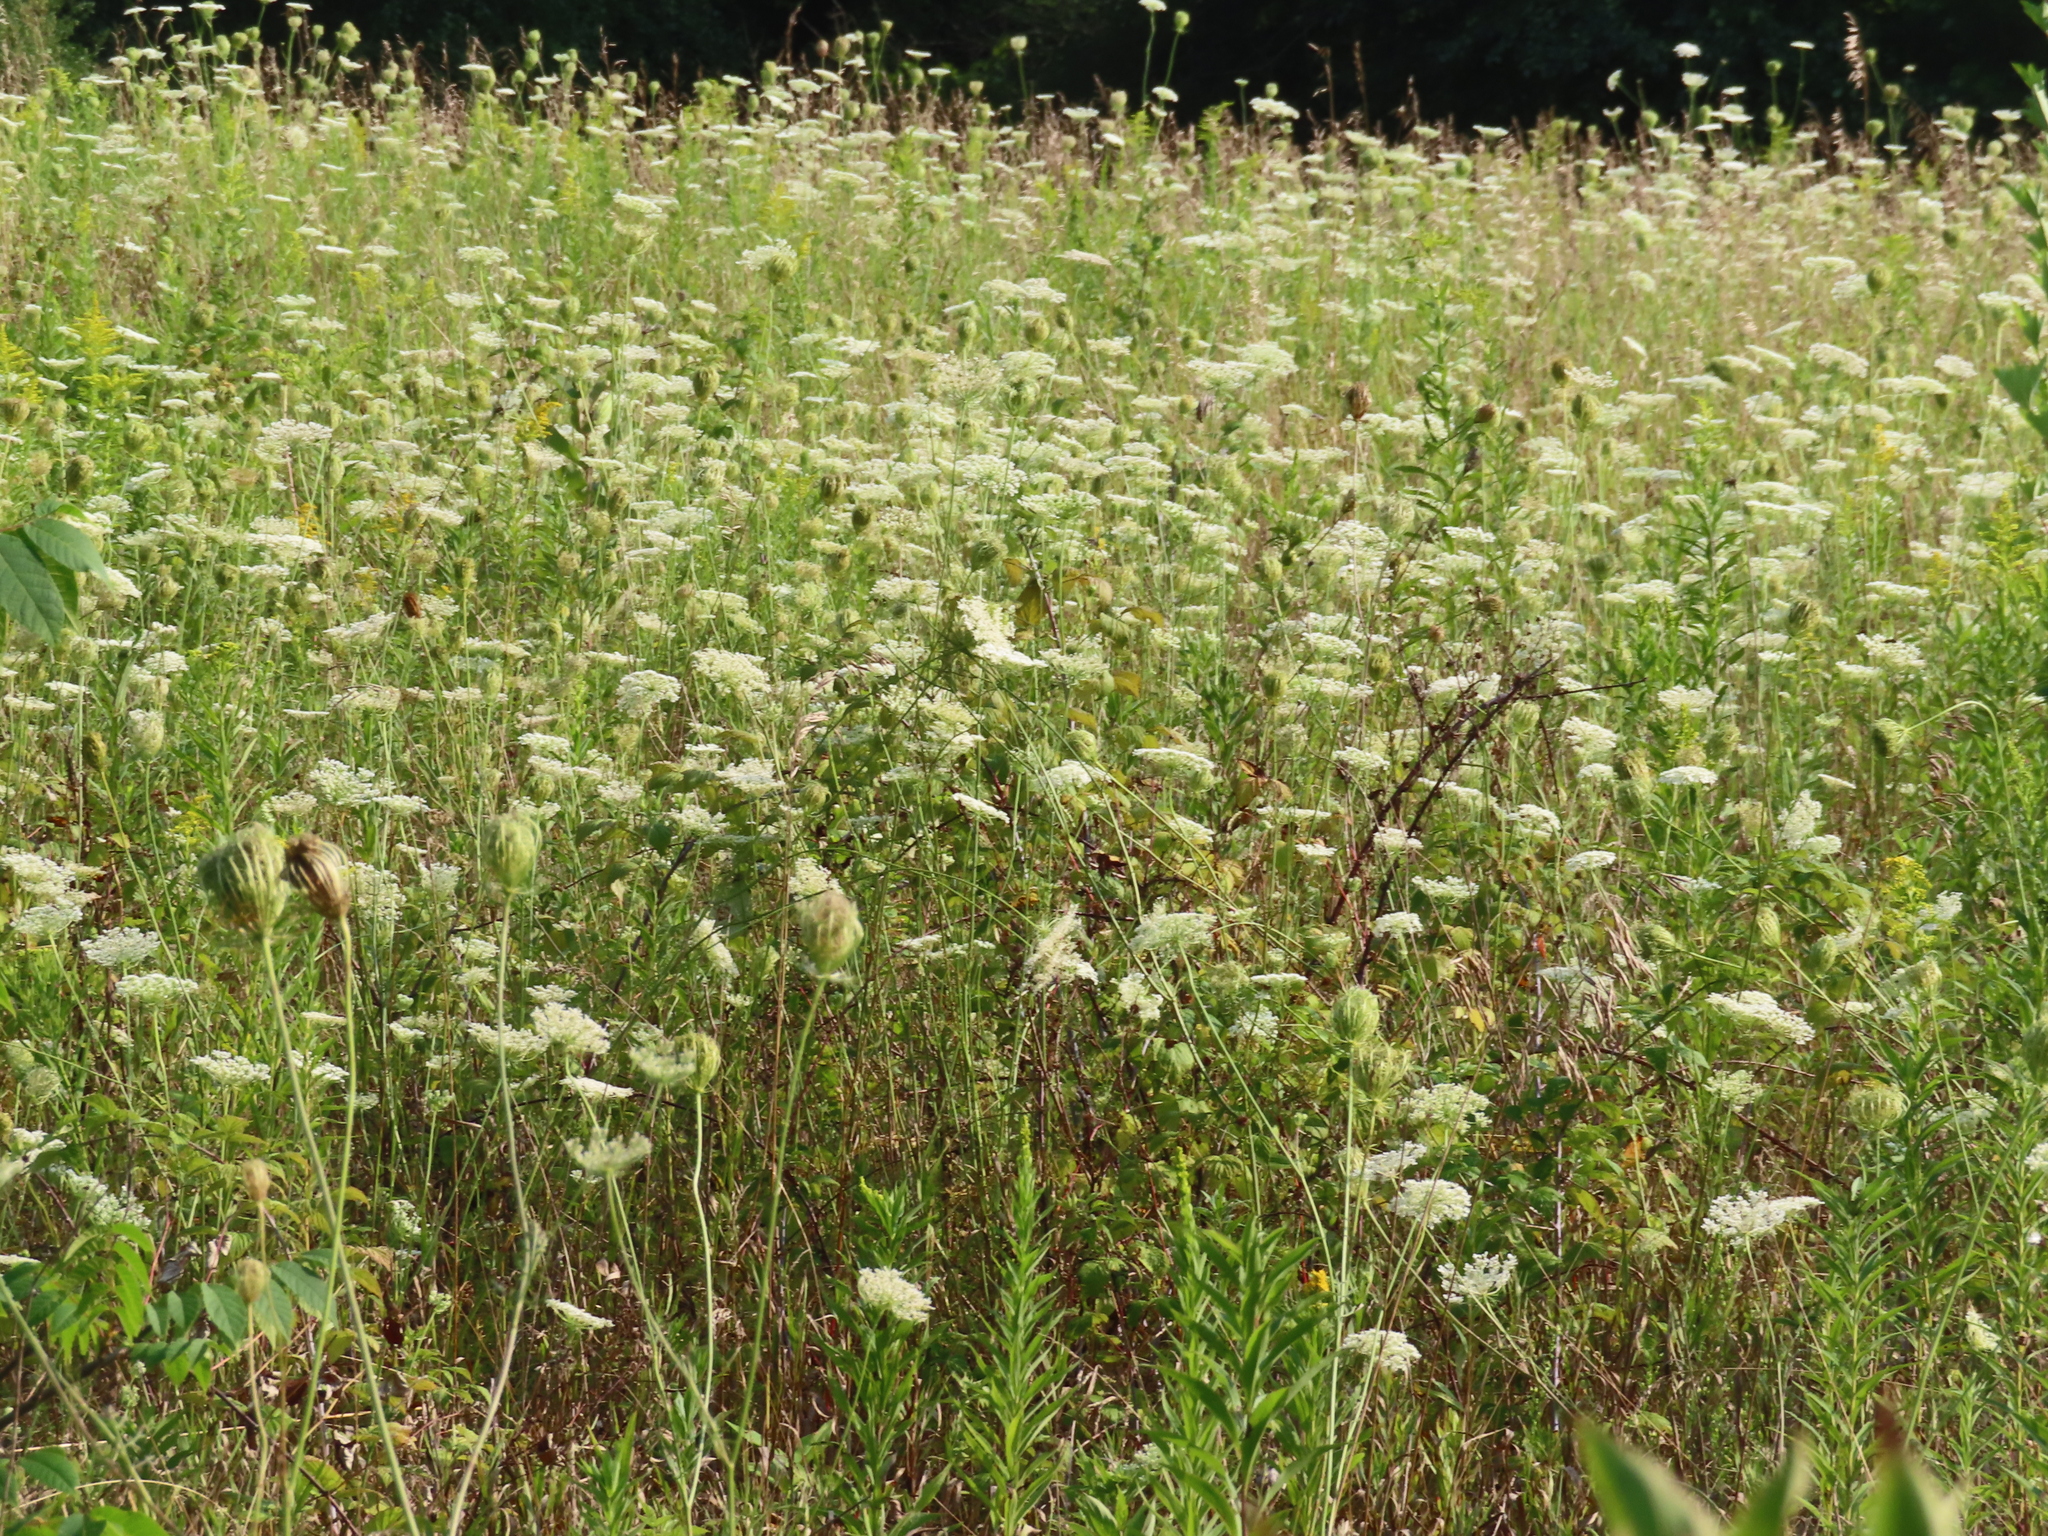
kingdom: Plantae
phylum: Tracheophyta
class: Magnoliopsida
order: Apiales
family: Apiaceae
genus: Daucus
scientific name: Daucus carota
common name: Wild carrot
